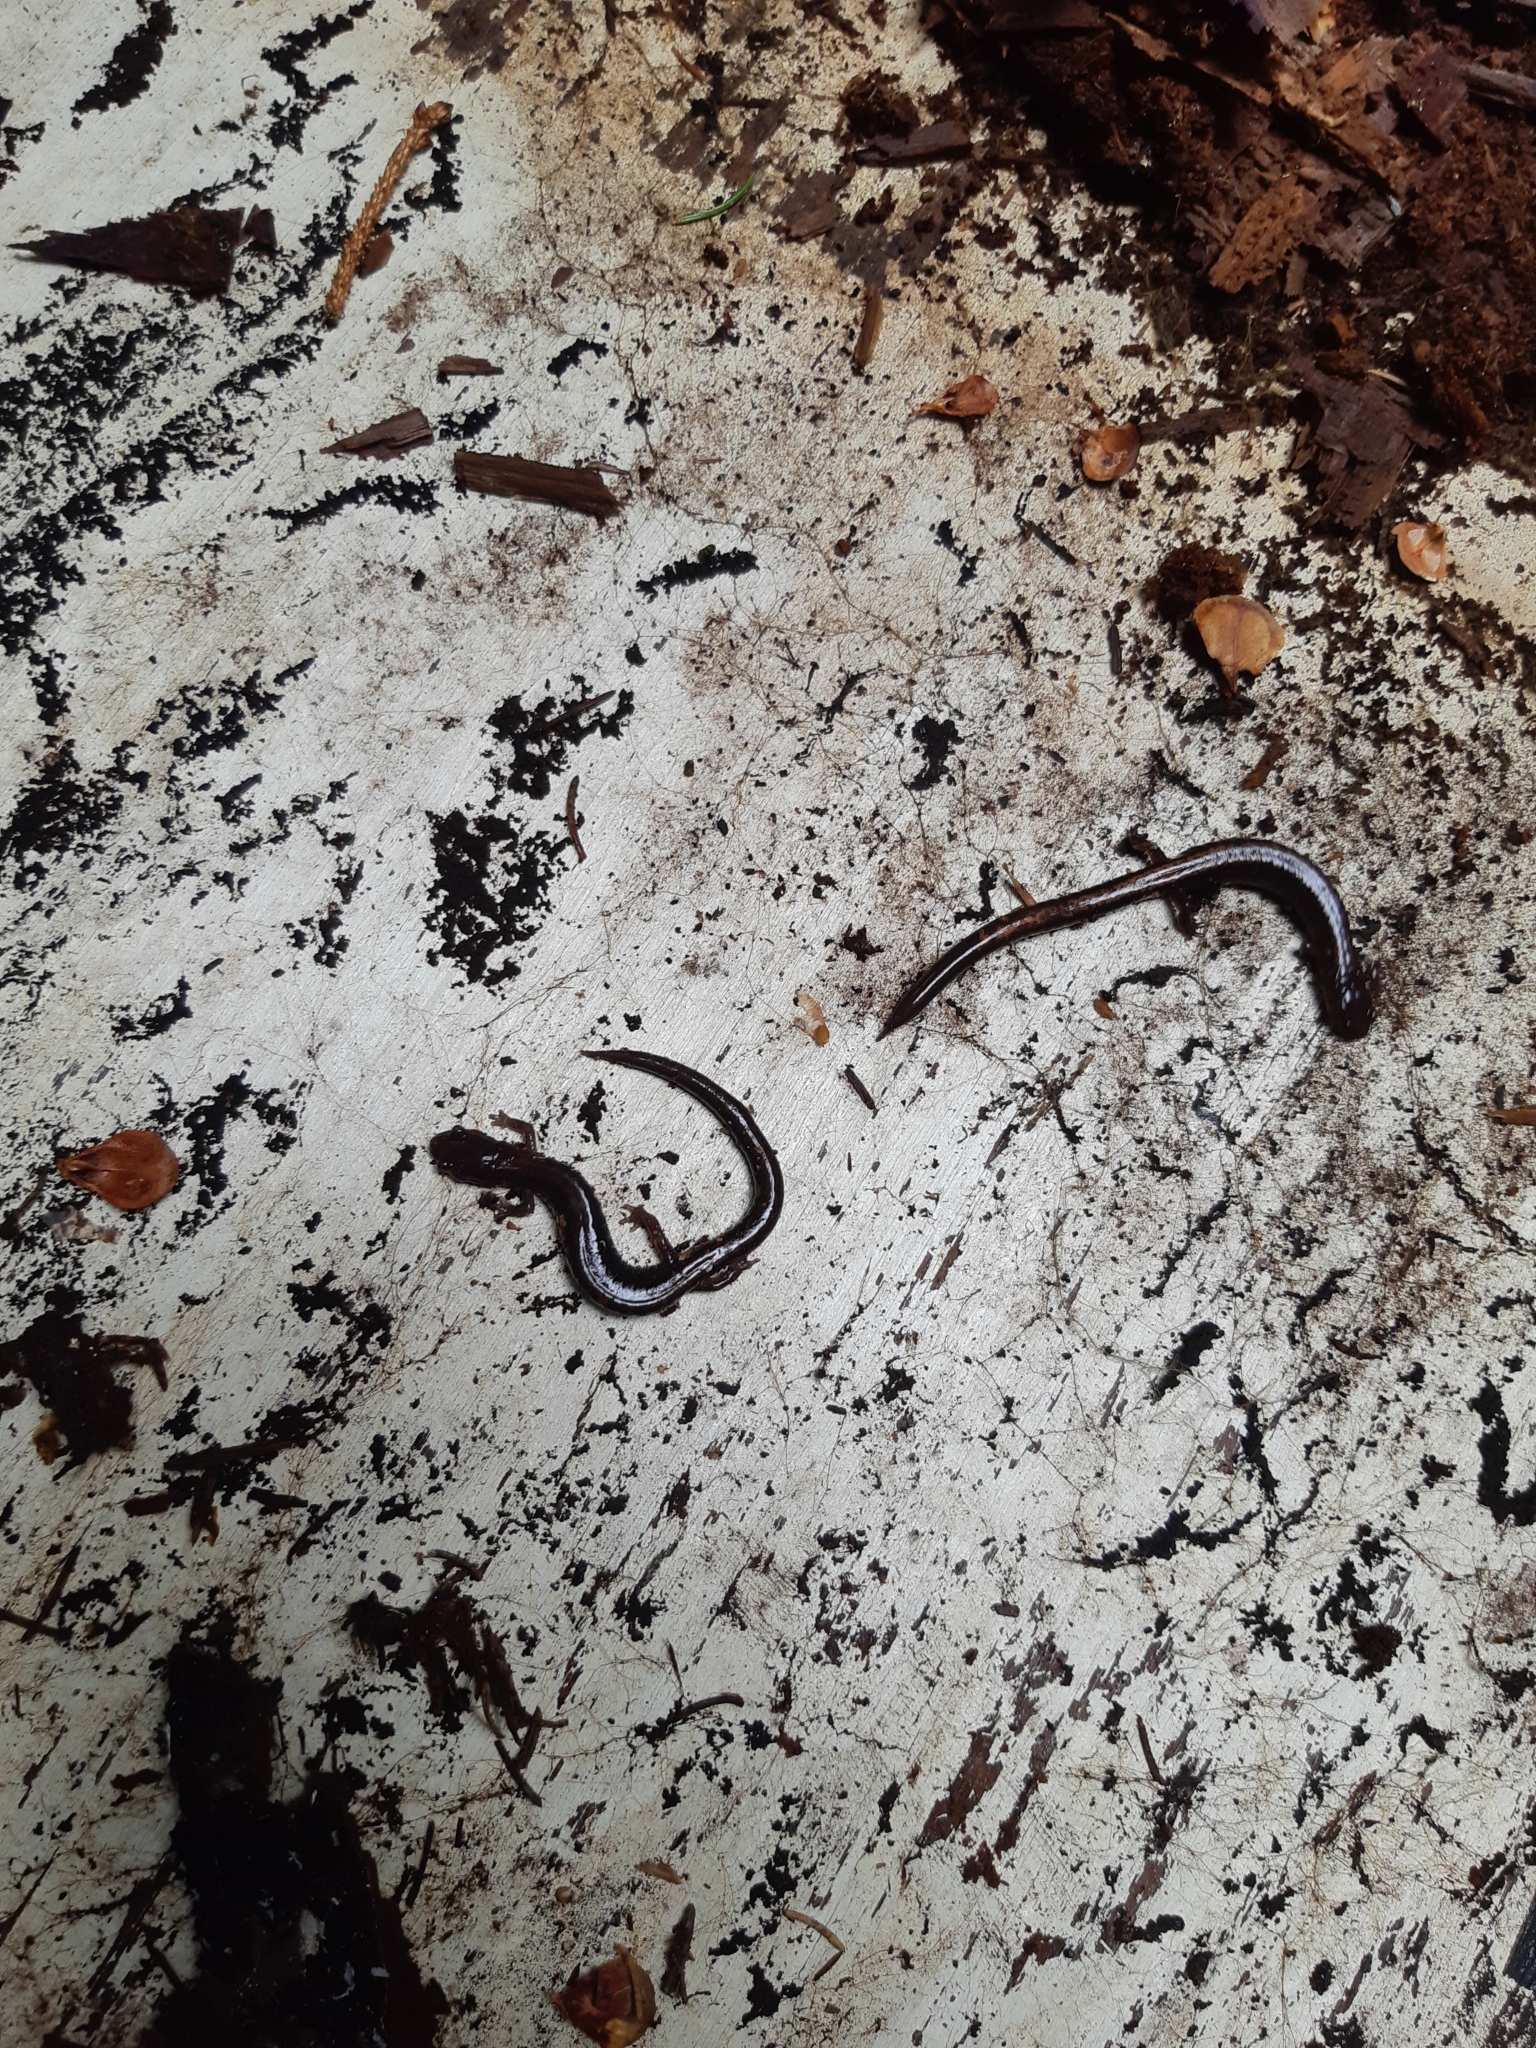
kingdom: Animalia
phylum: Chordata
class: Amphibia
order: Caudata
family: Plethodontidae
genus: Plethodon
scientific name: Plethodon cinereus
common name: Redback salamander
